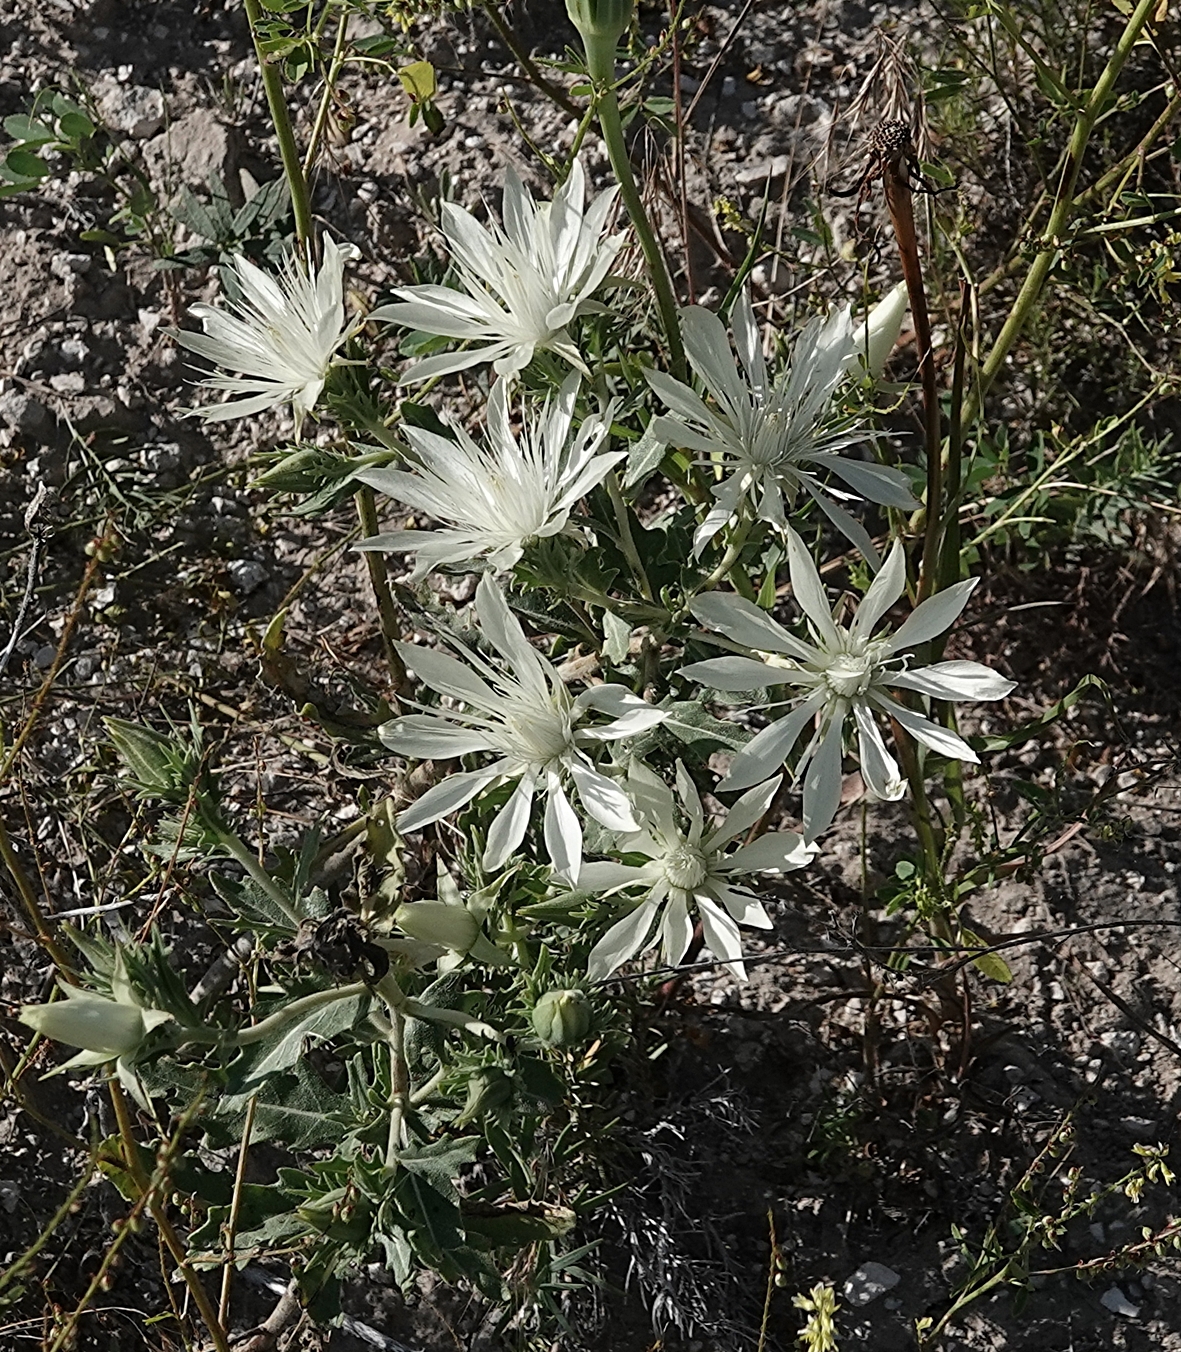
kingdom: Plantae
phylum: Tracheophyta
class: Magnoliopsida
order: Cornales
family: Loasaceae
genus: Mentzelia
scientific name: Mentzelia nuda
